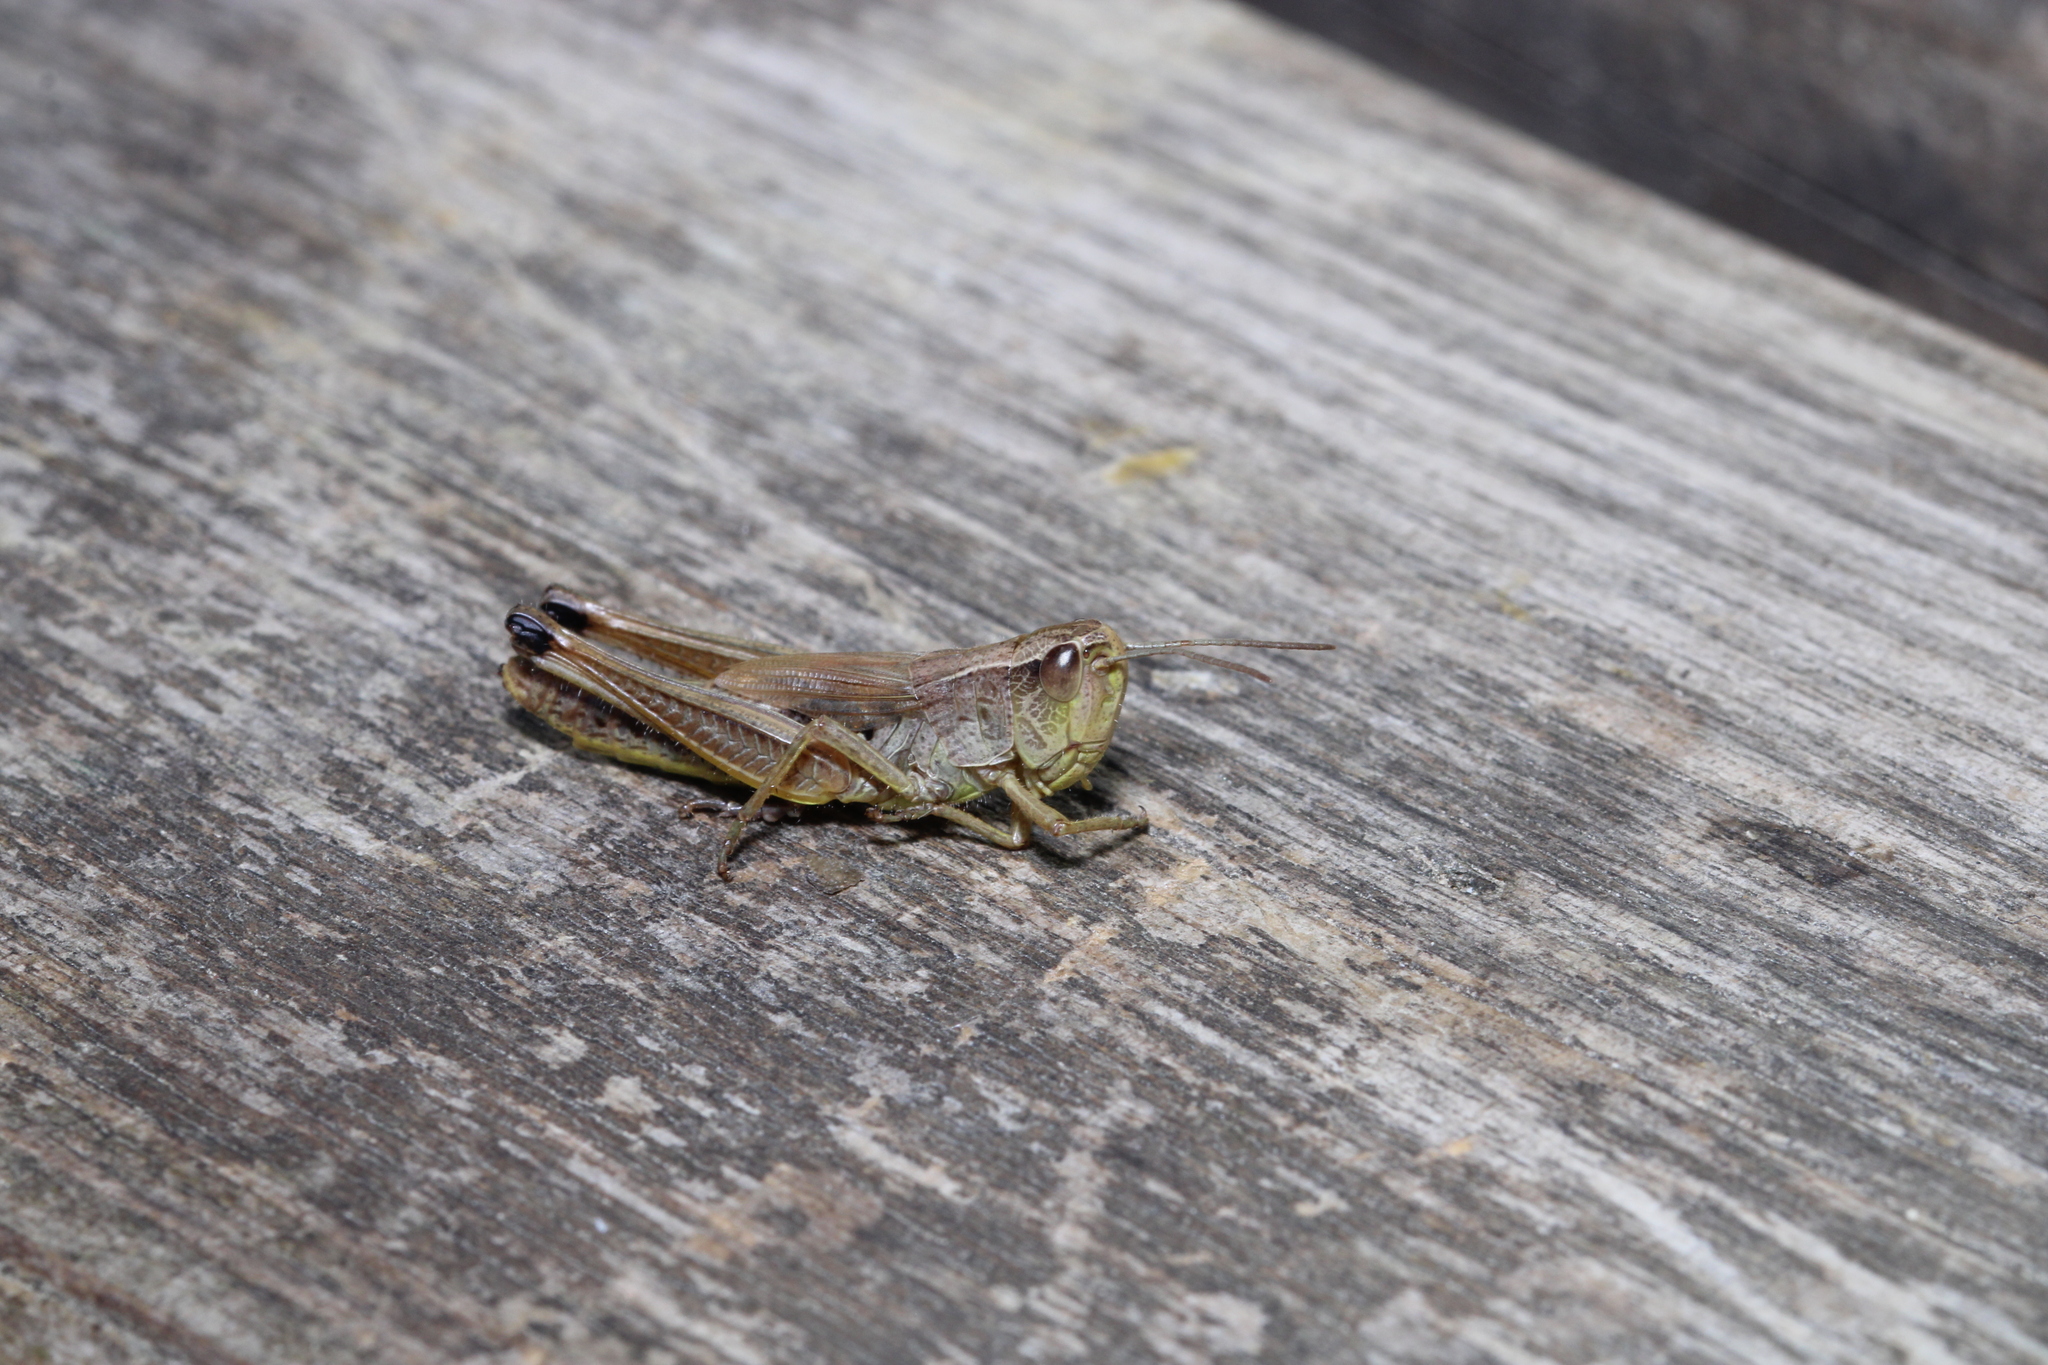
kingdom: Animalia
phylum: Arthropoda
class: Insecta
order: Orthoptera
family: Acrididae
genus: Pseudochorthippus
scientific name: Pseudochorthippus parallelus
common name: Meadow grasshopper
